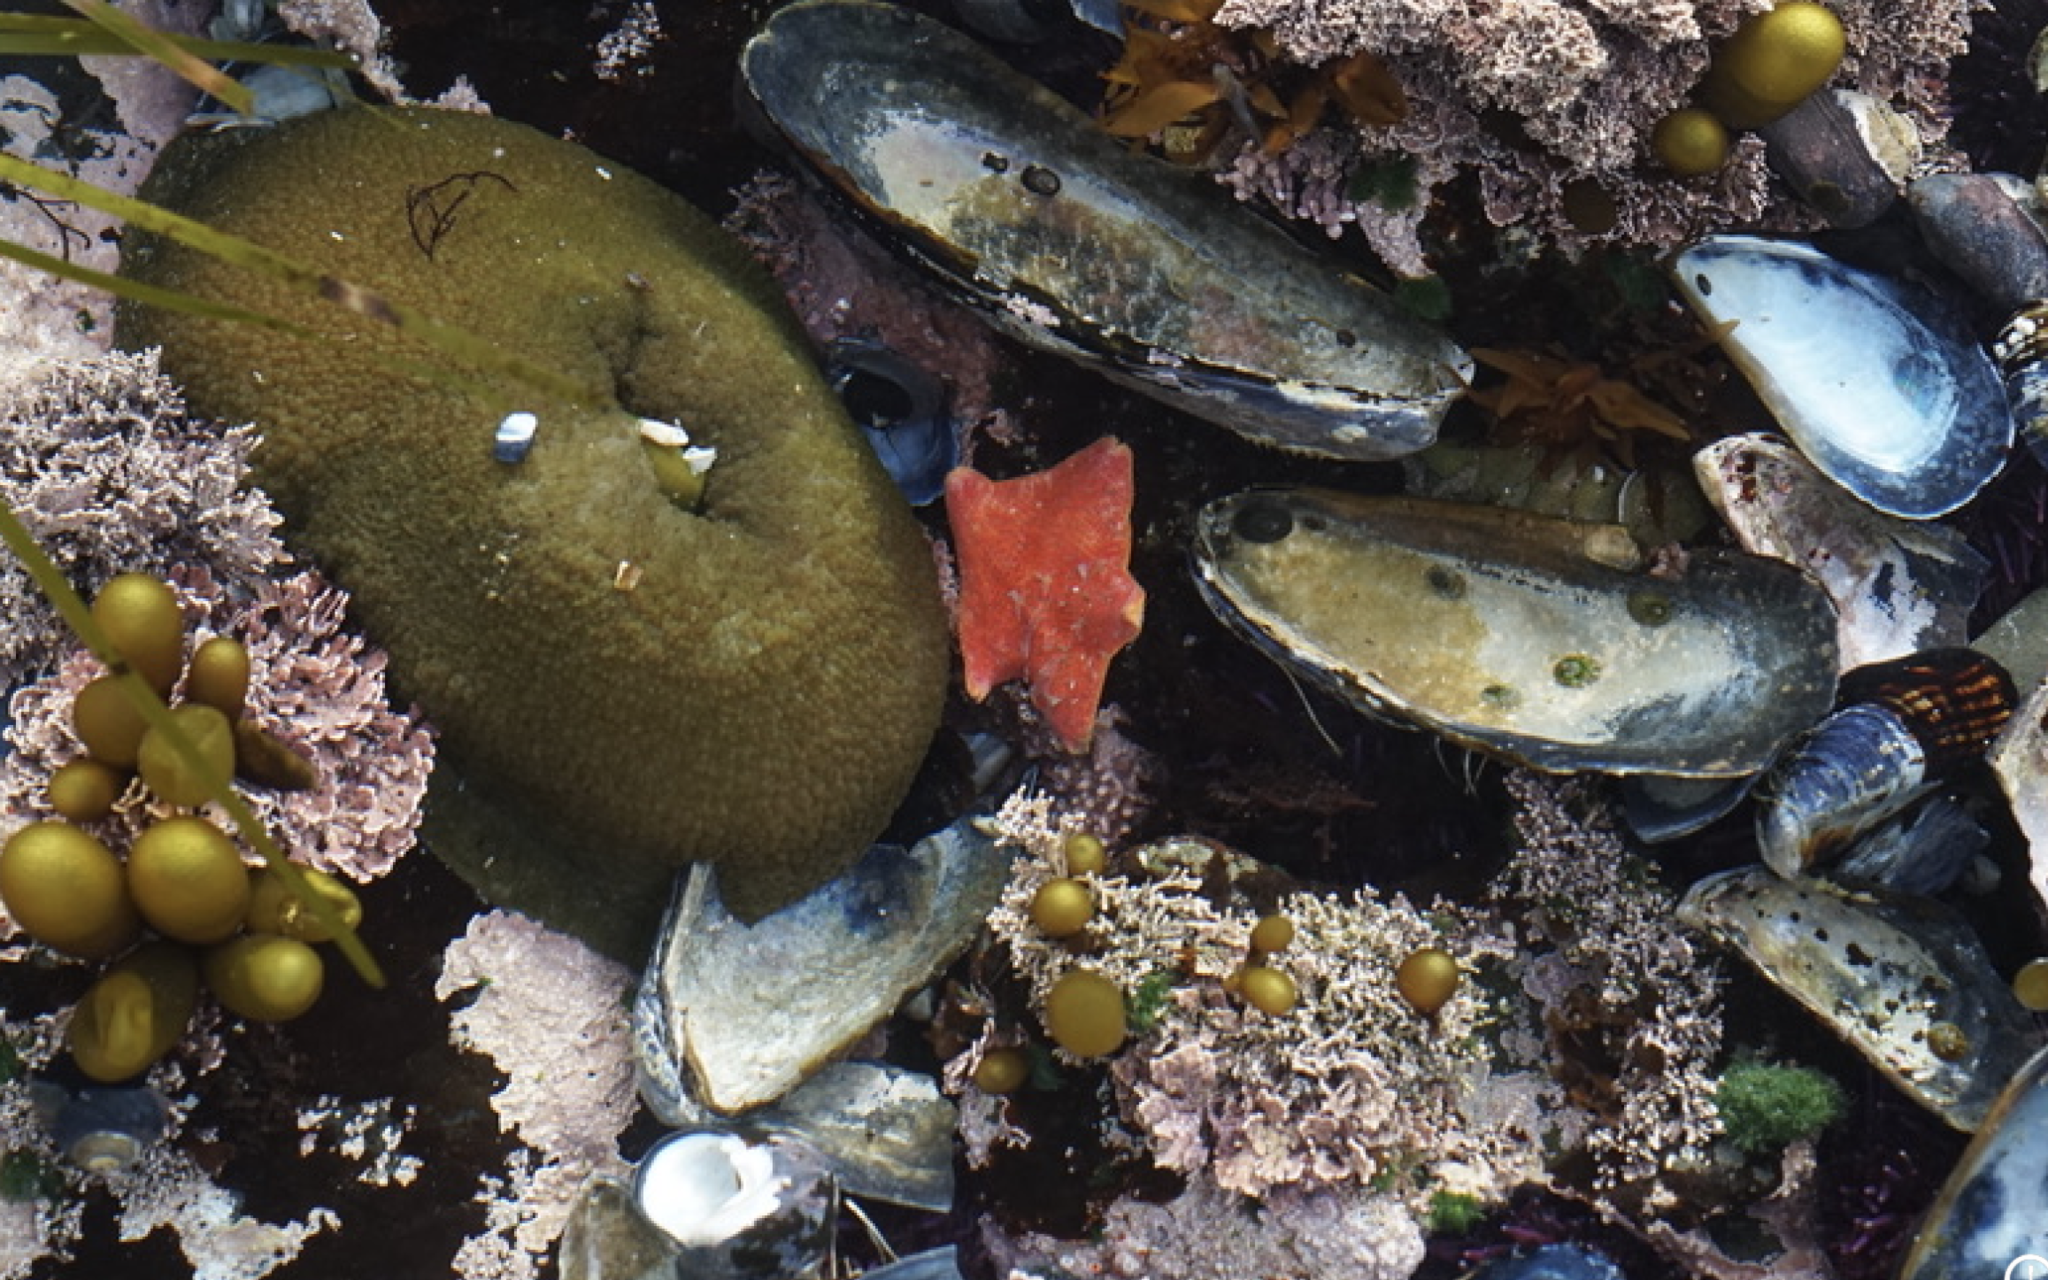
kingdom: Animalia
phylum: Echinodermata
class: Asteroidea
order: Valvatida
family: Asterinidae
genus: Patiria
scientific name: Patiria miniata
